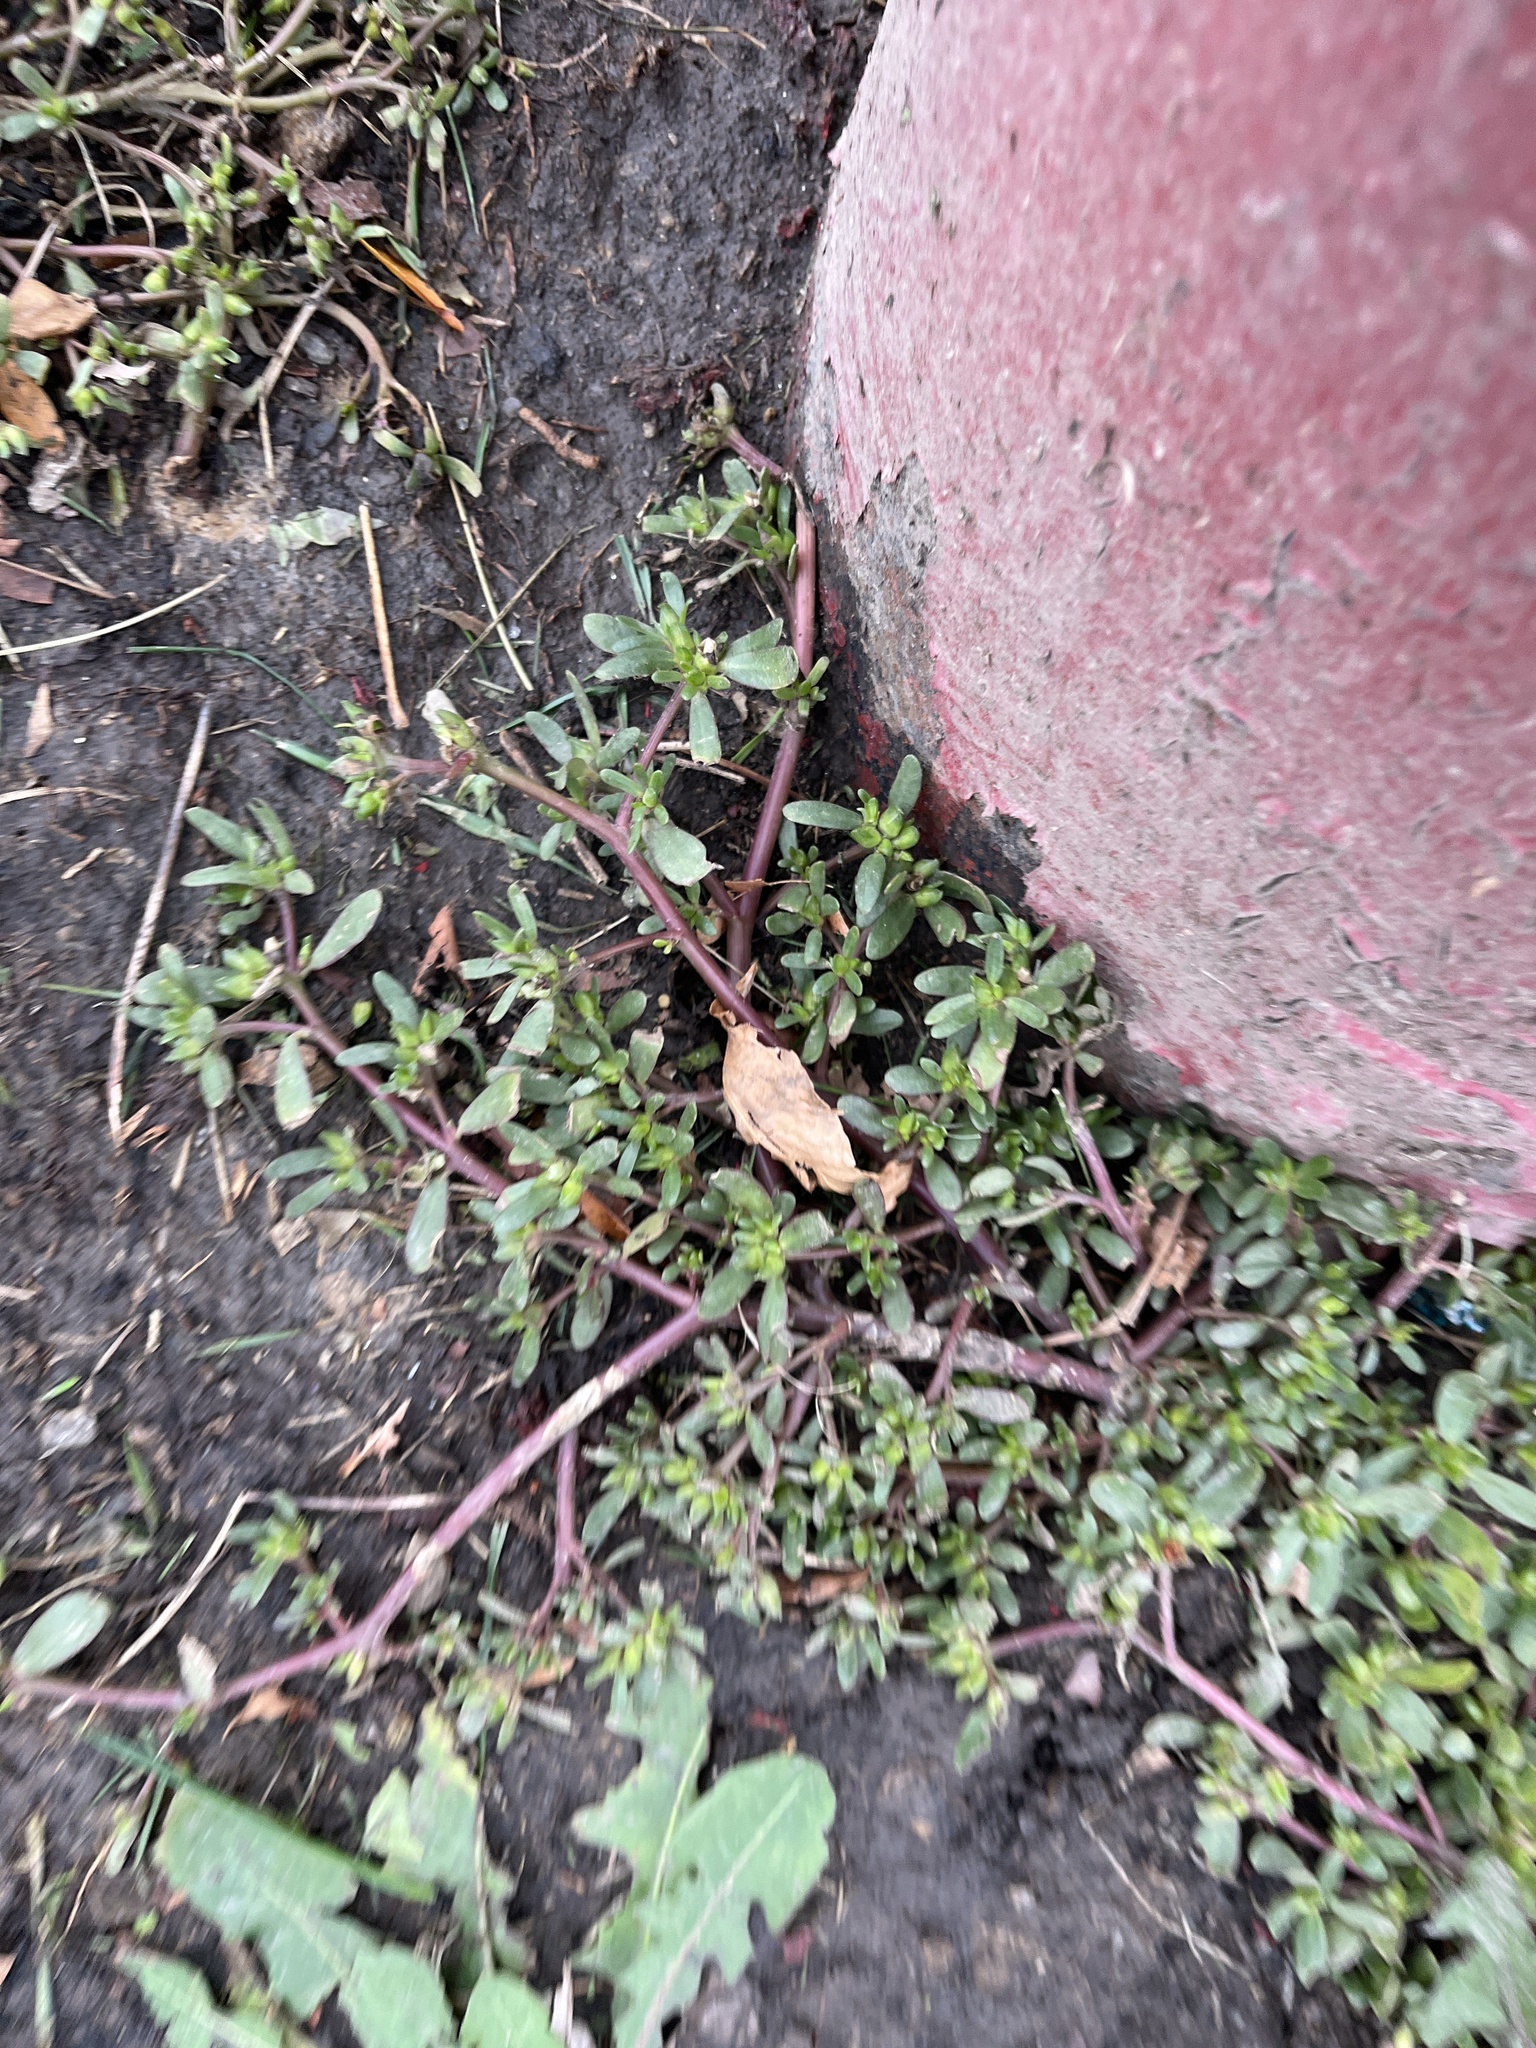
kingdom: Plantae
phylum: Tracheophyta
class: Magnoliopsida
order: Caryophyllales
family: Portulacaceae
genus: Portulaca
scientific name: Portulaca oleracea
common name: Common purslane
